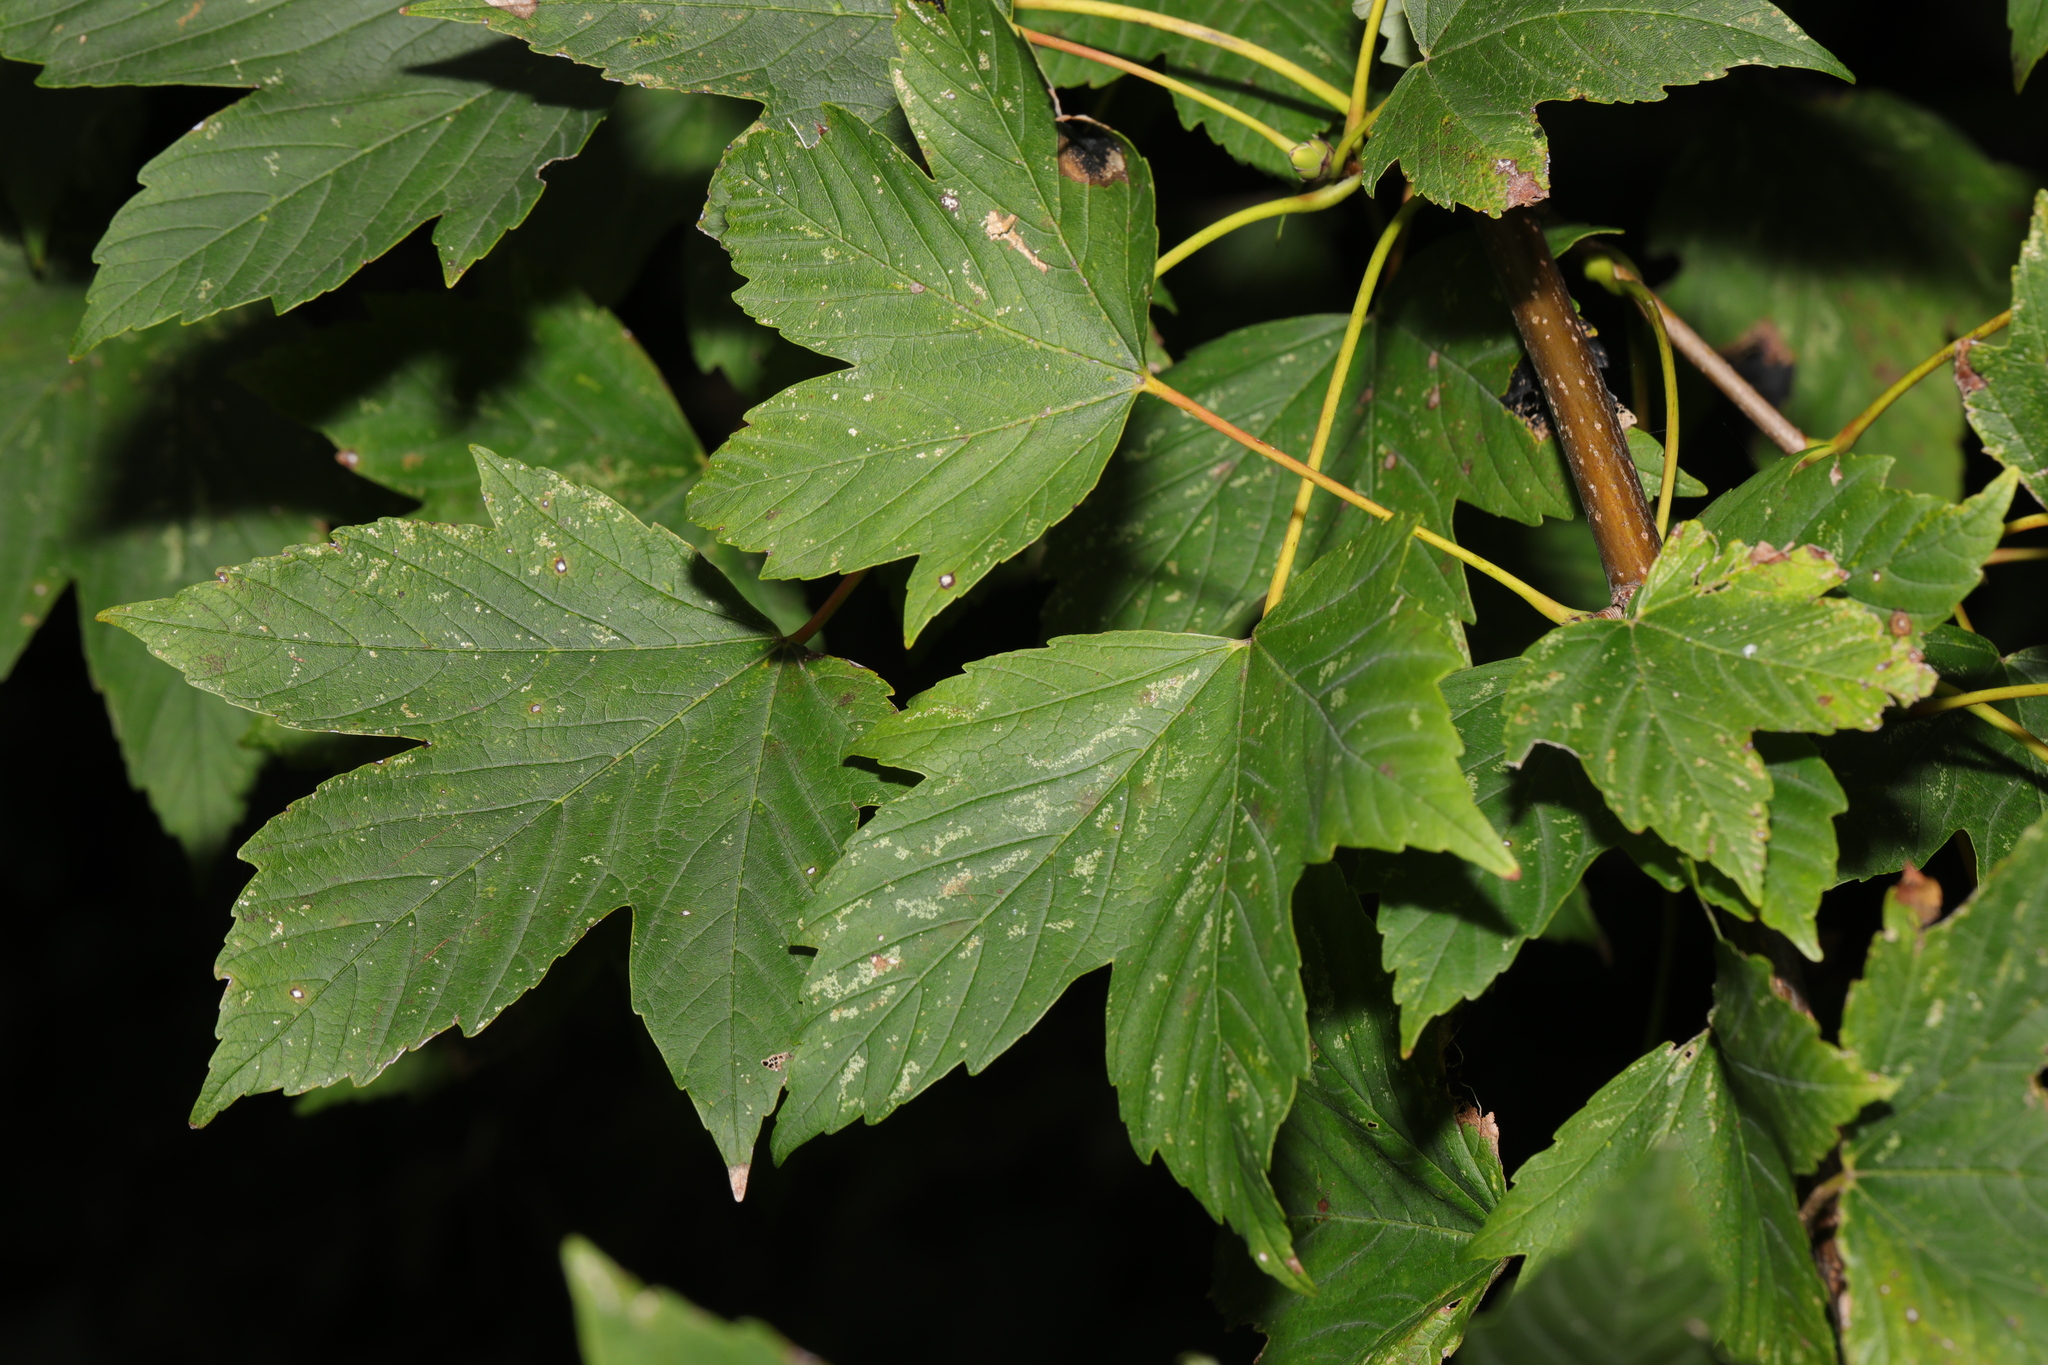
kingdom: Plantae
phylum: Tracheophyta
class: Magnoliopsida
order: Sapindales
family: Sapindaceae
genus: Acer
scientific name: Acer pseudoplatanus
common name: Sycamore
